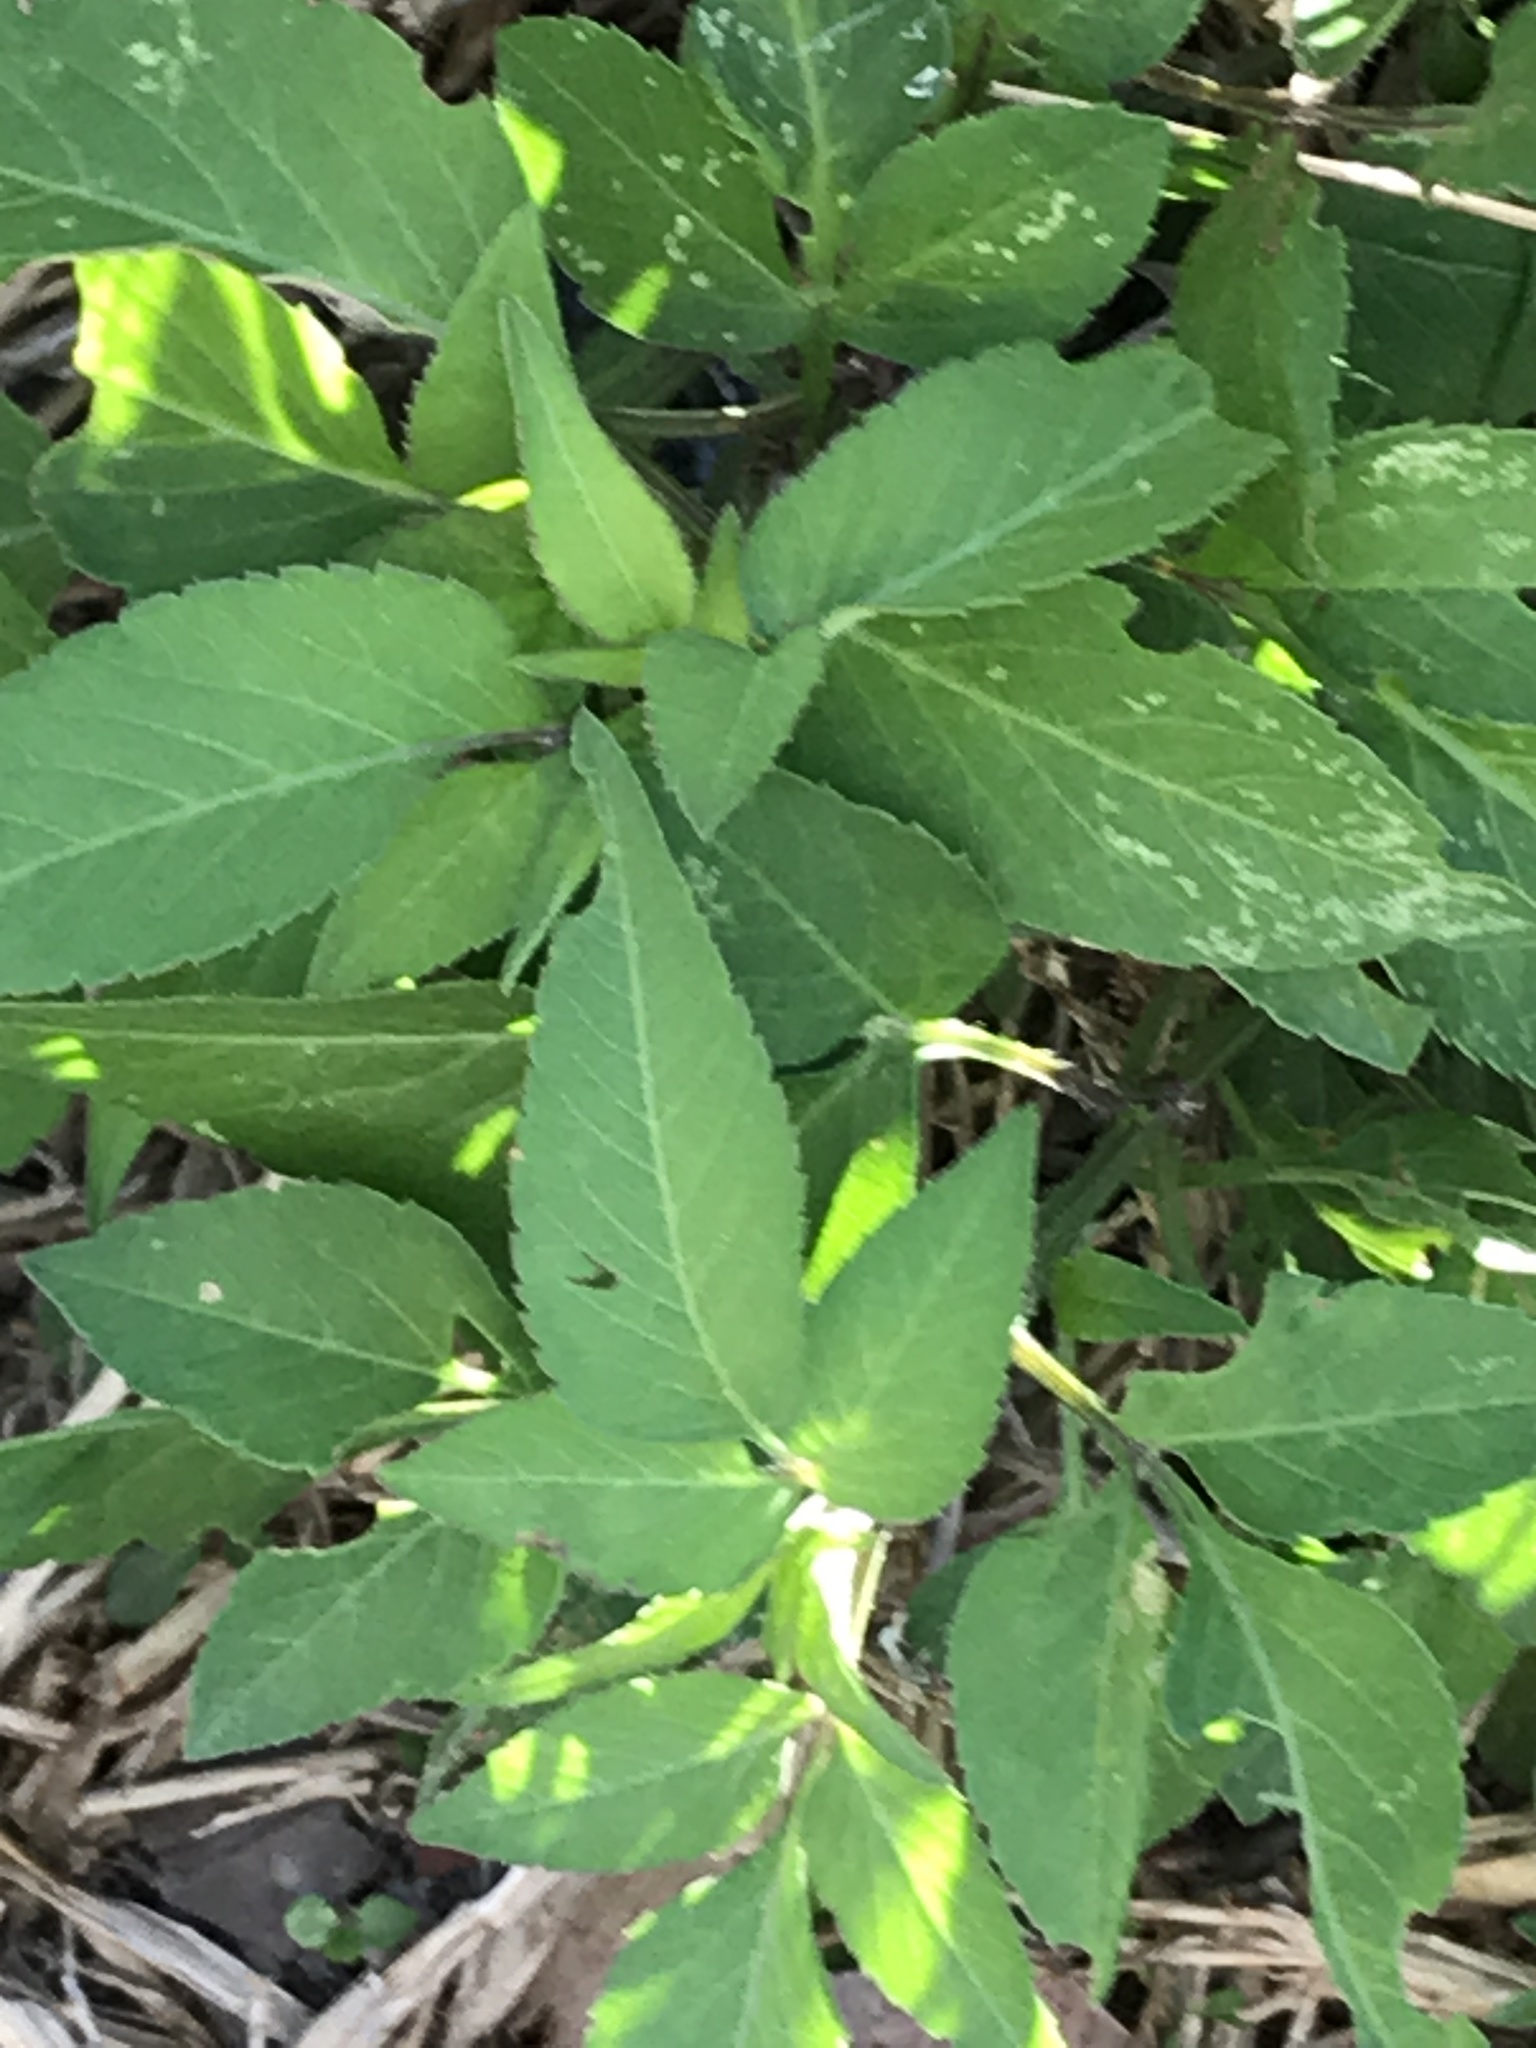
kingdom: Plantae
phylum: Tracheophyta
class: Magnoliopsida
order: Asterales
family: Asteraceae
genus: Bidens
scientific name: Bidens alba
